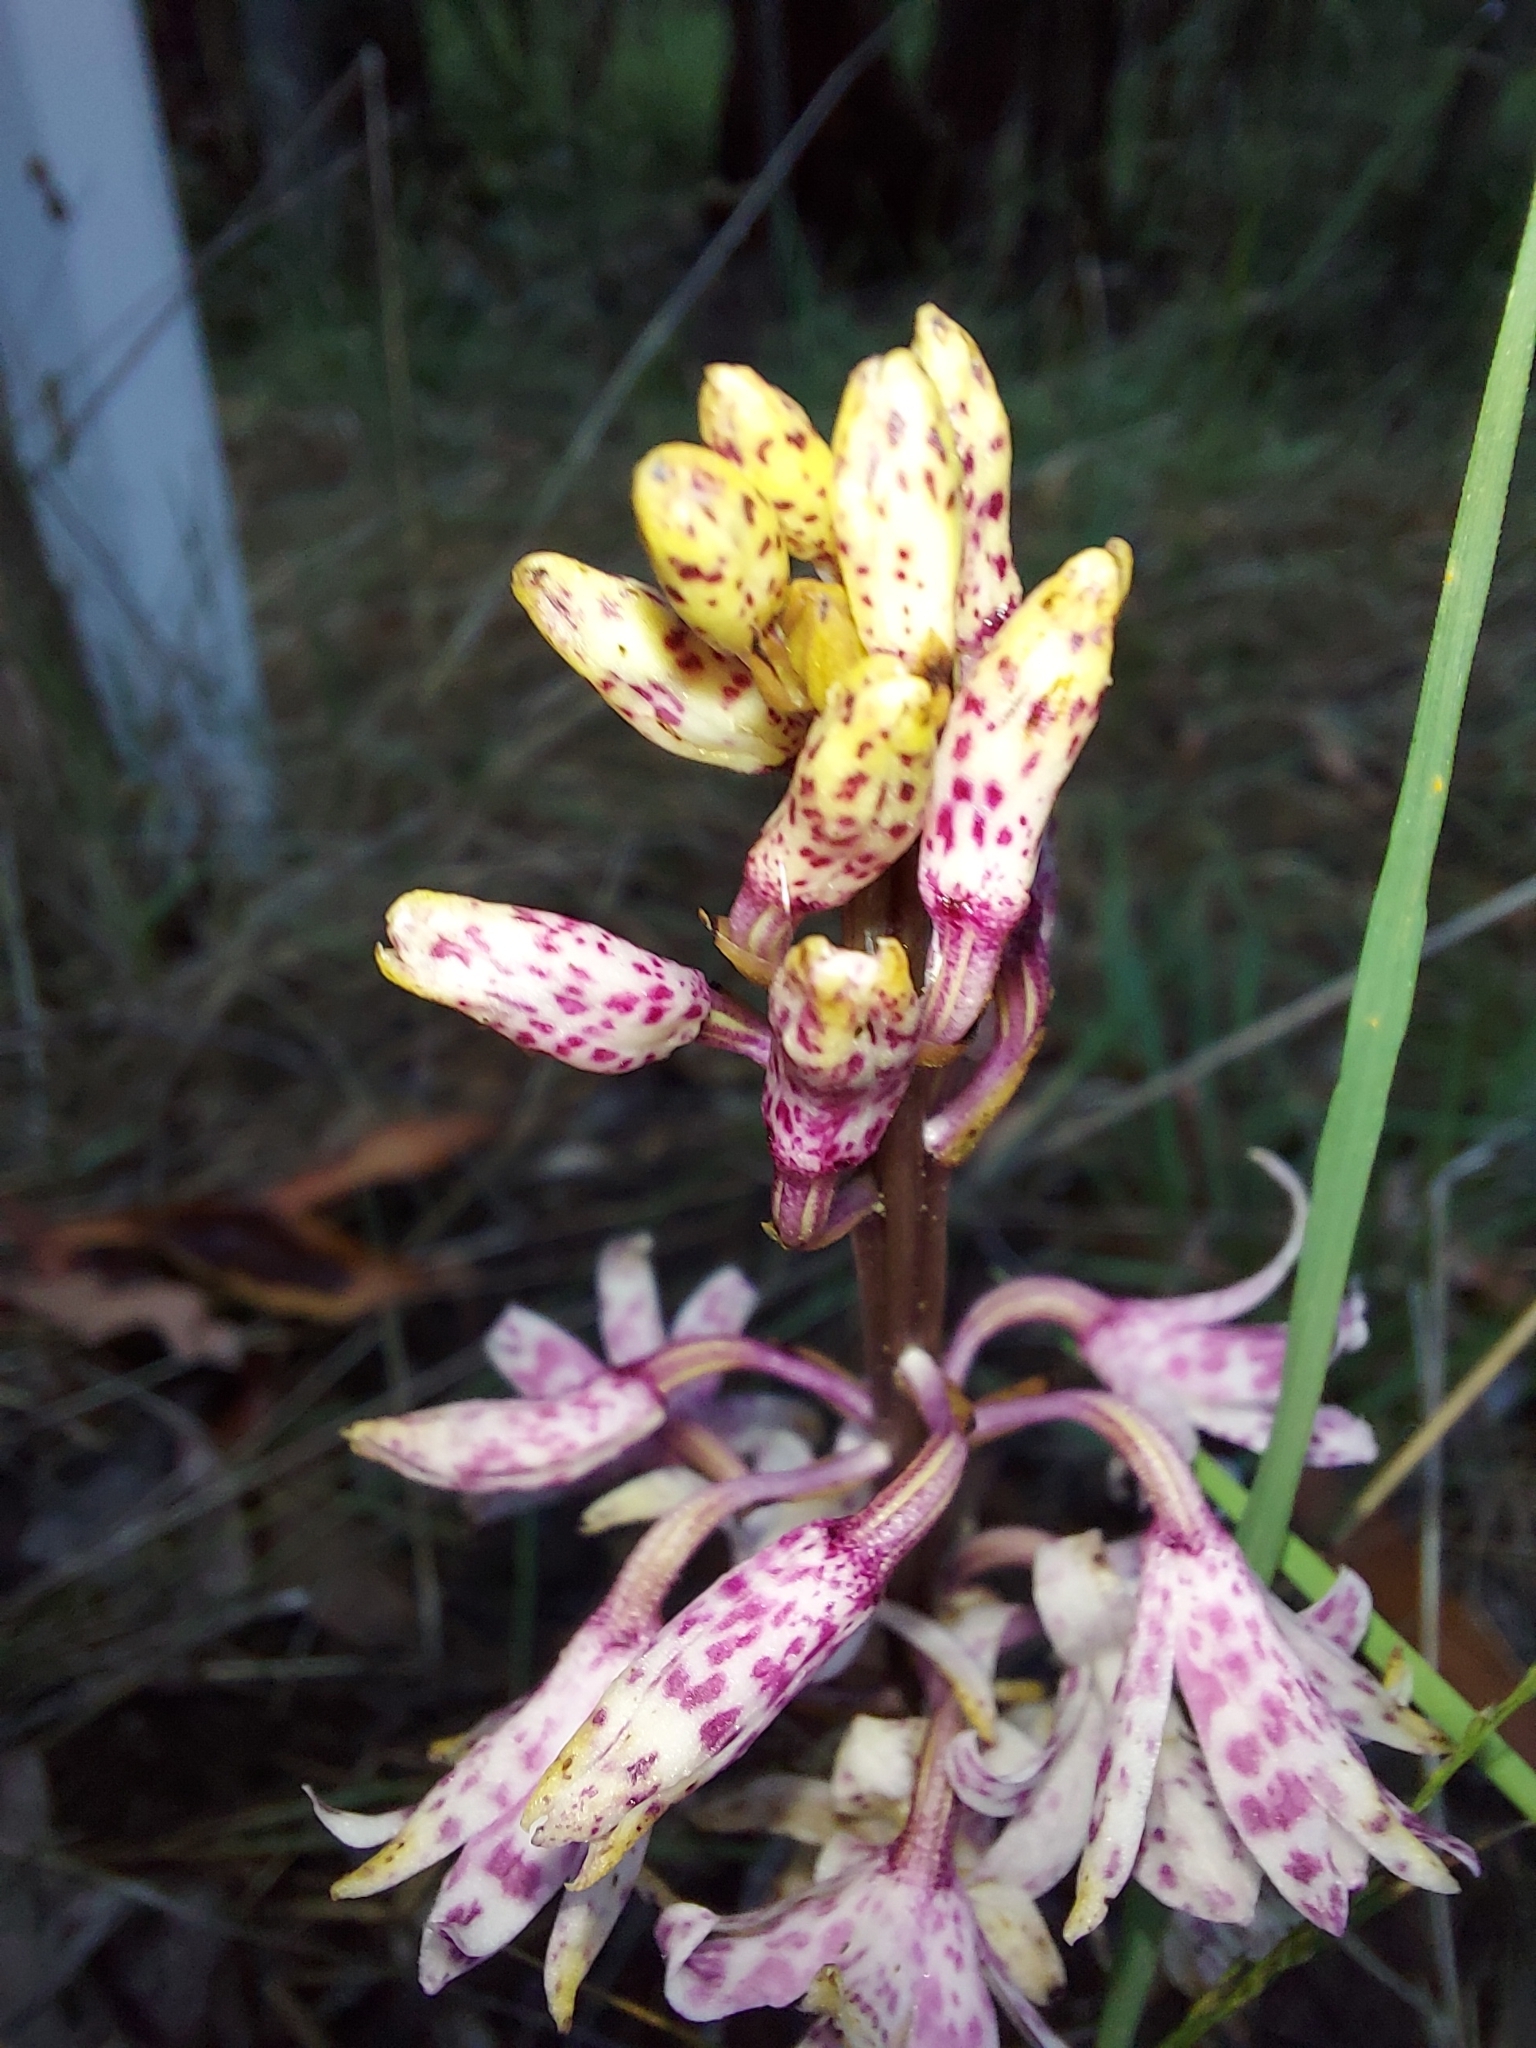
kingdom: Plantae
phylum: Tracheophyta
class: Liliopsida
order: Asparagales
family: Orchidaceae
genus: Dipodium
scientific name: Dipodium pardalinum
